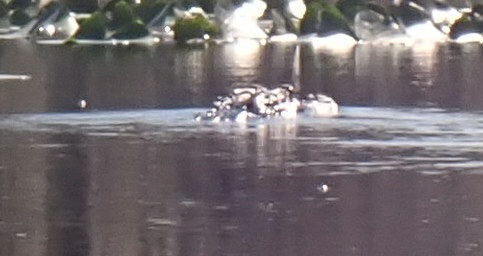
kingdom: Animalia
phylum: Chordata
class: Crocodylia
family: Alligatoridae
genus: Alligator
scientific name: Alligator mississippiensis
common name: American alligator
